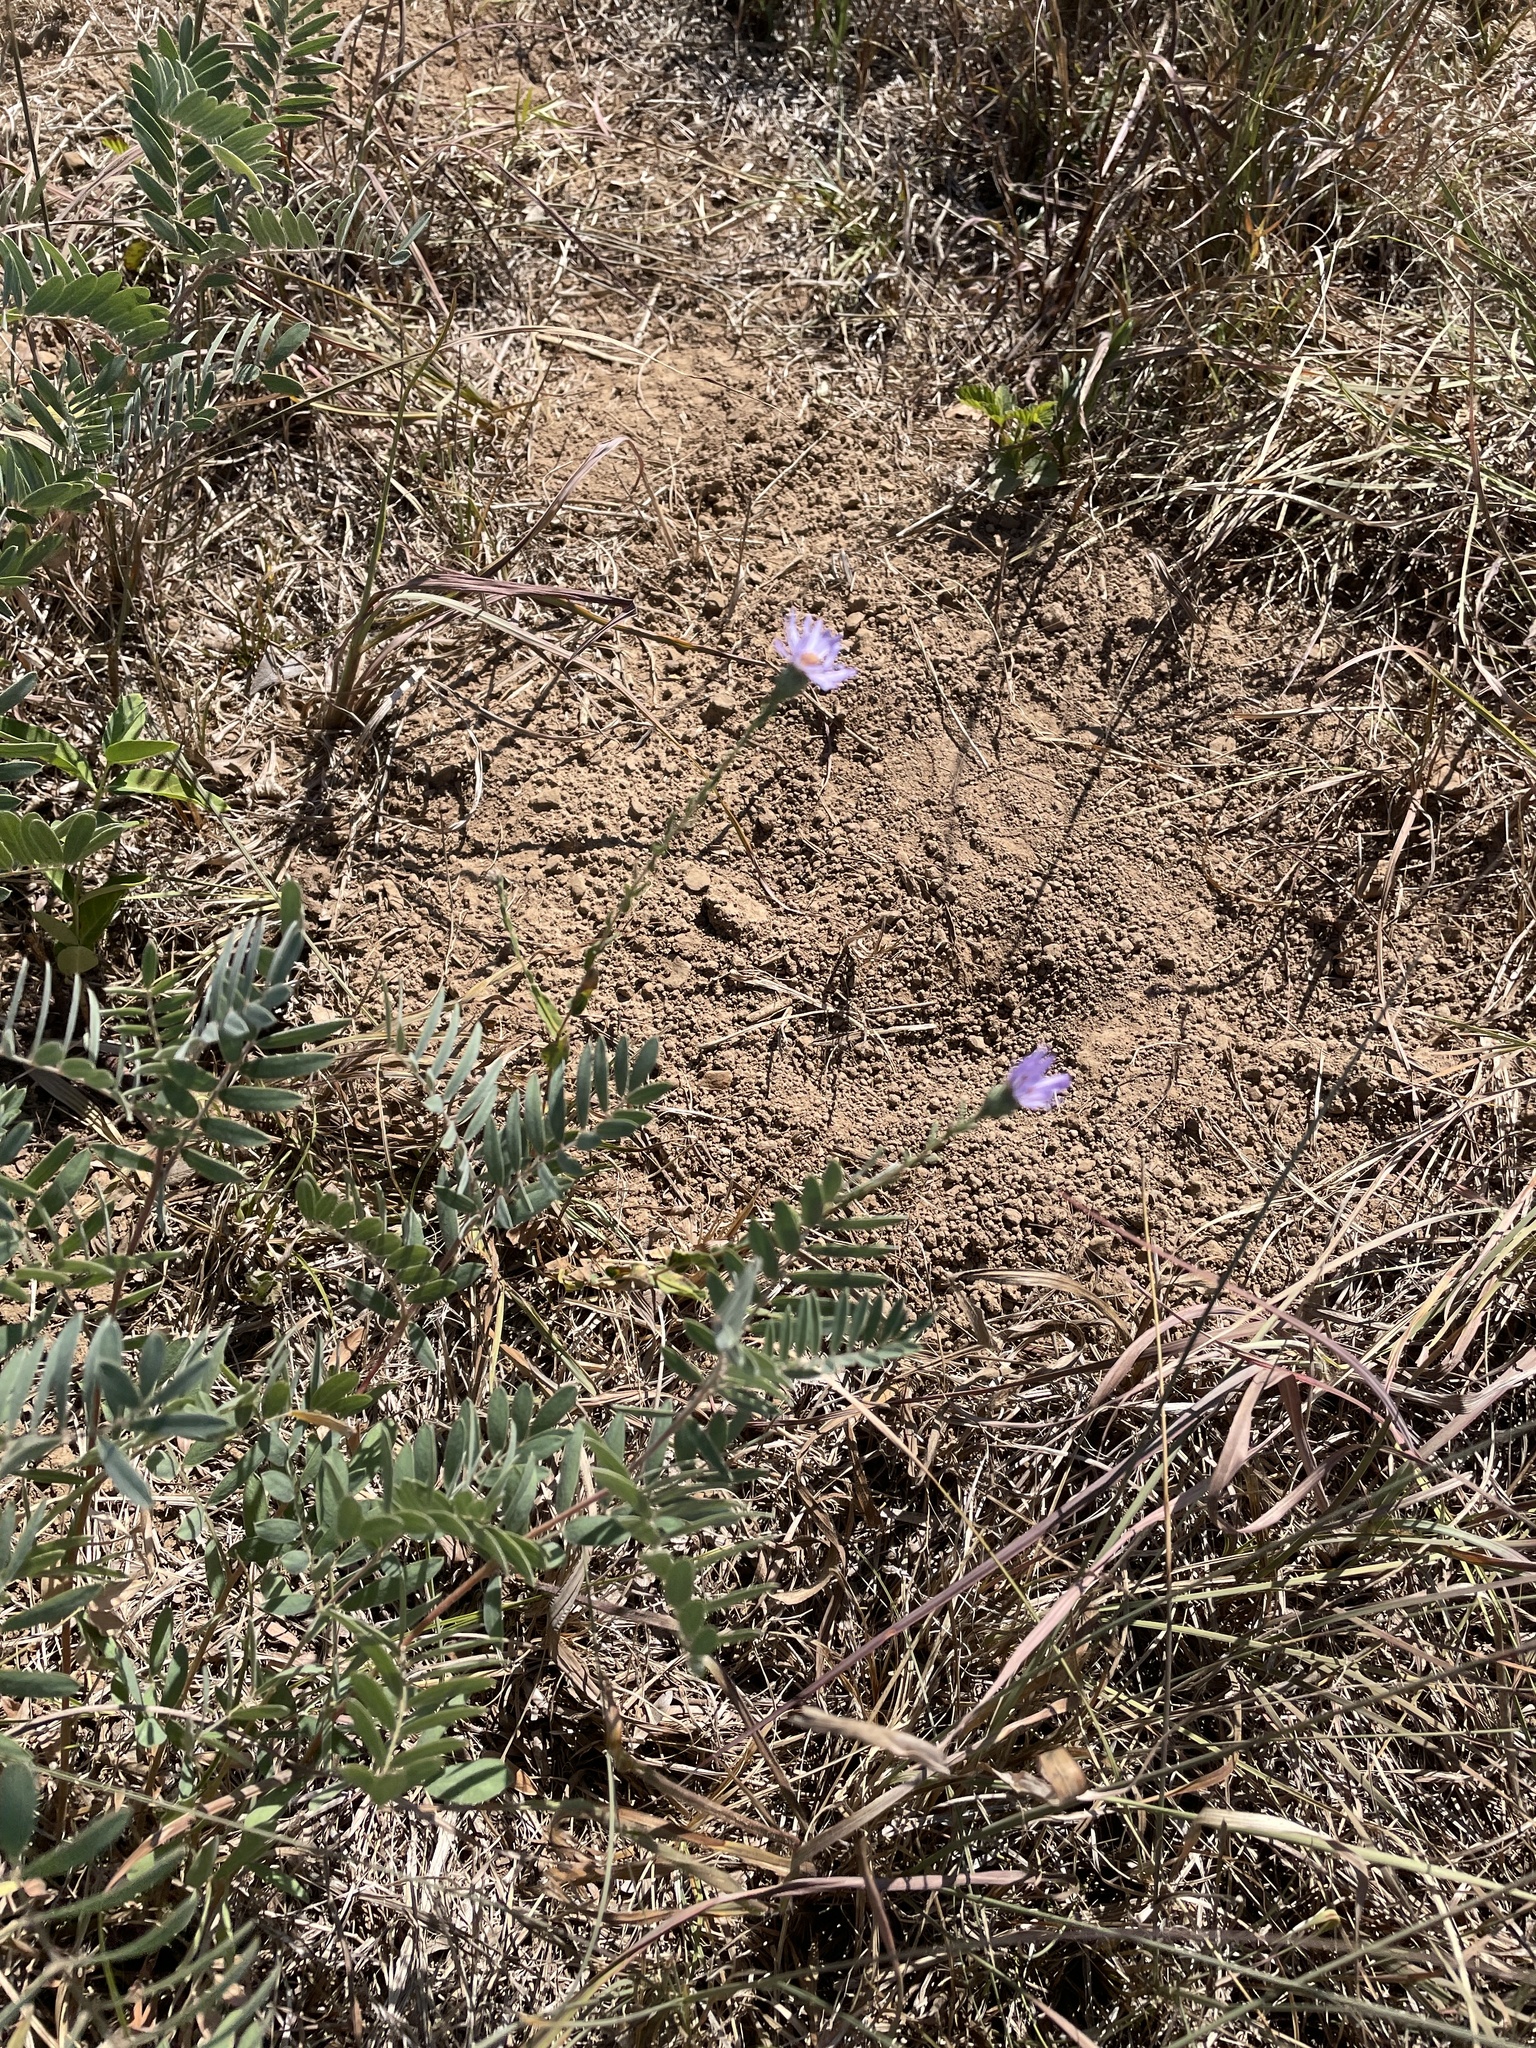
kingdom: Plantae
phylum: Tracheophyta
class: Magnoliopsida
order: Asterales
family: Asteraceae
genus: Symphyotrichum
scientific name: Symphyotrichum patens
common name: Late purple aster
